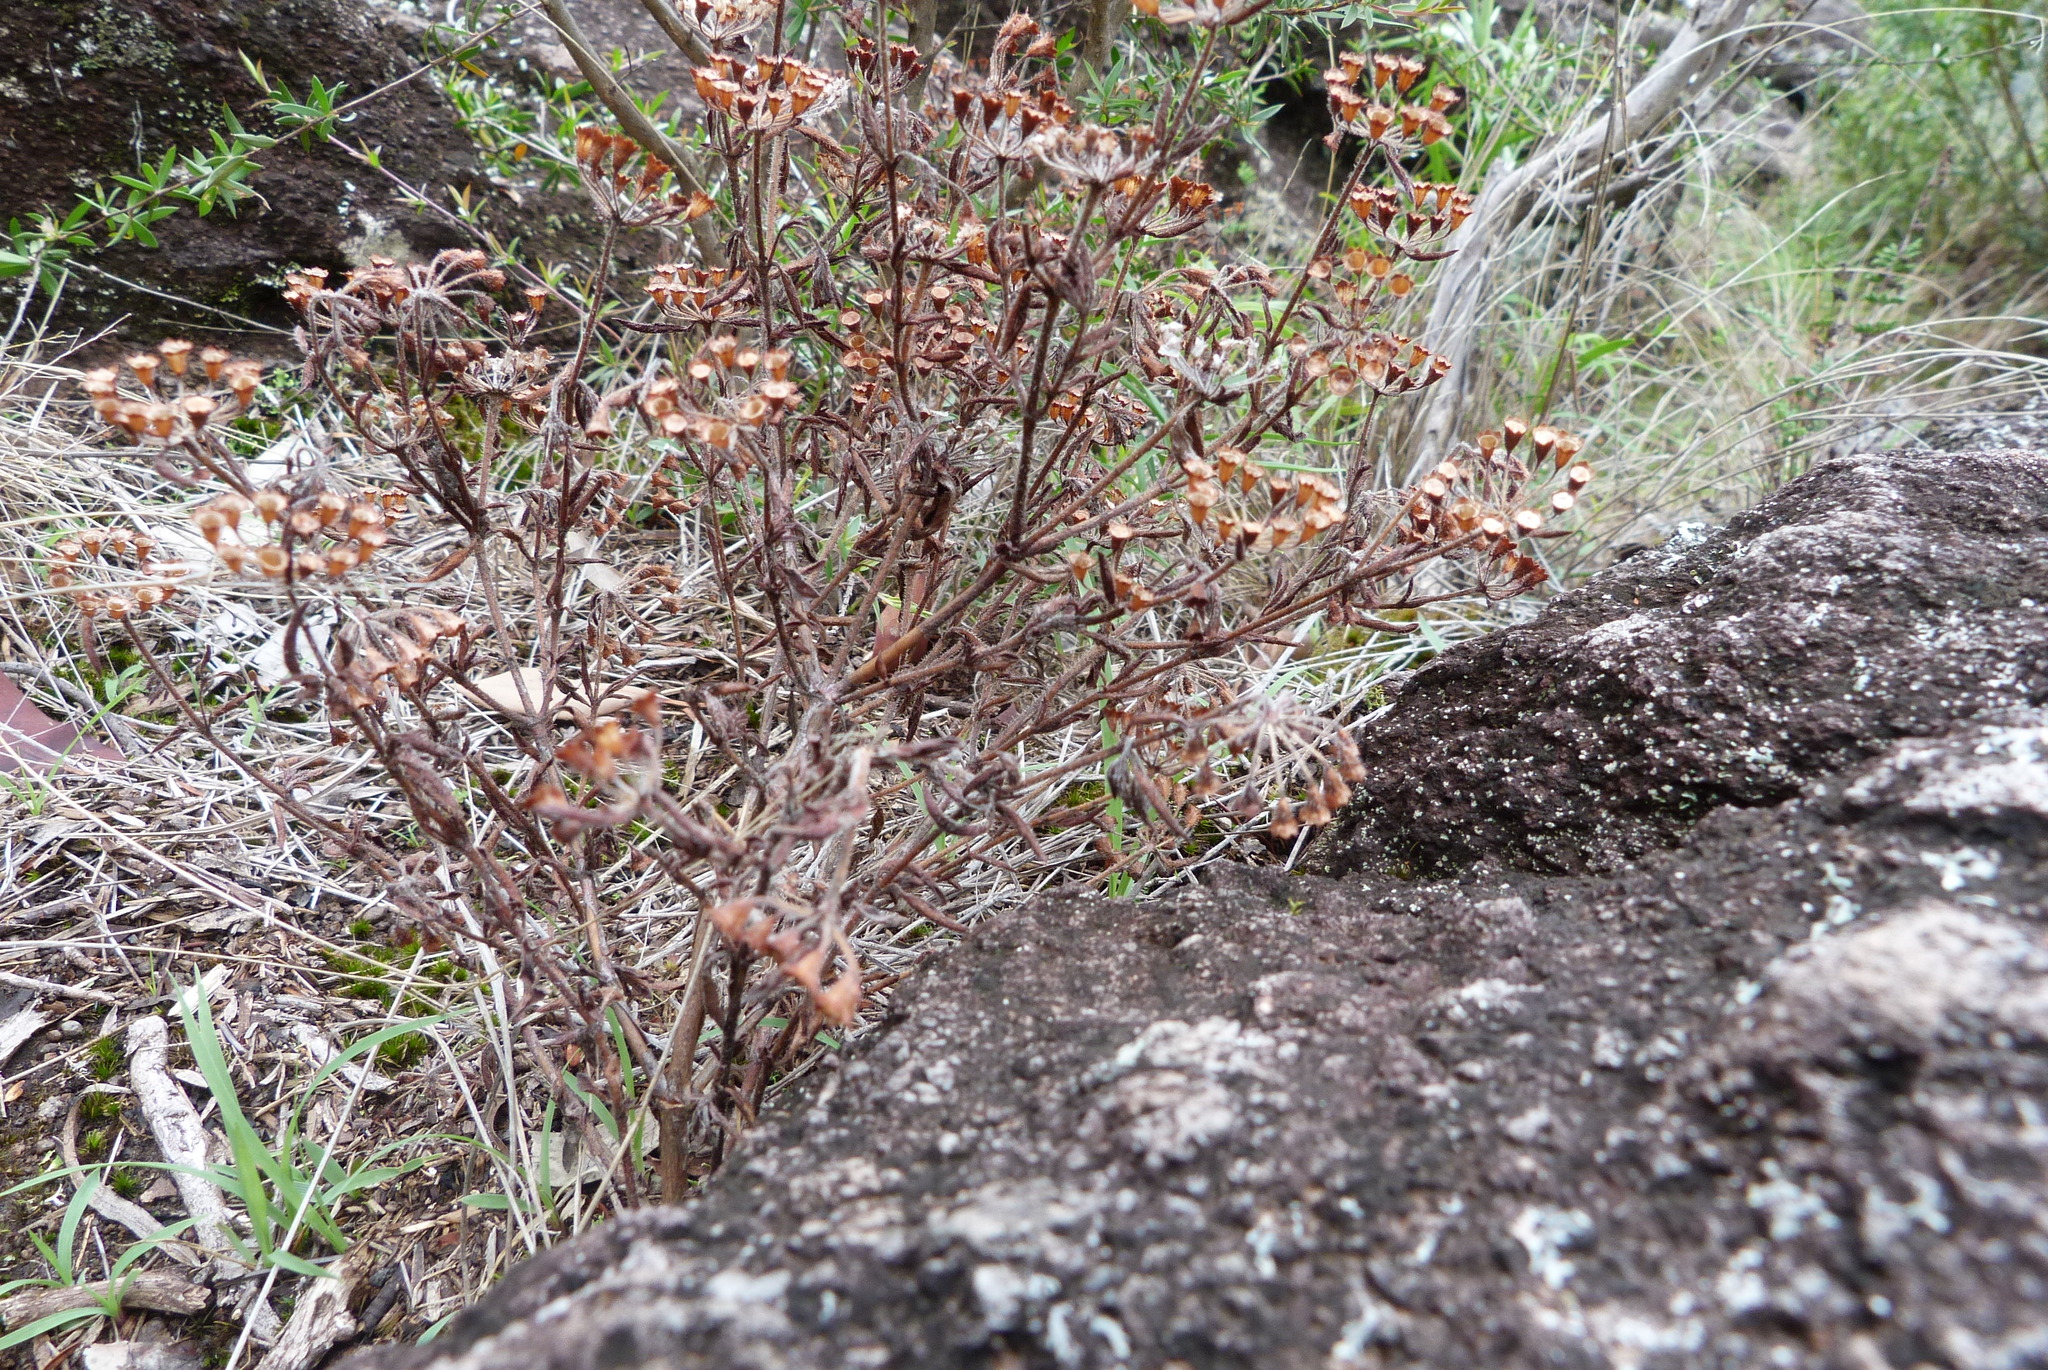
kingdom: Plantae
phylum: Tracheophyta
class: Magnoliopsida
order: Gentianales
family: Rubiaceae
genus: Pomax
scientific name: Pomax umbellata
